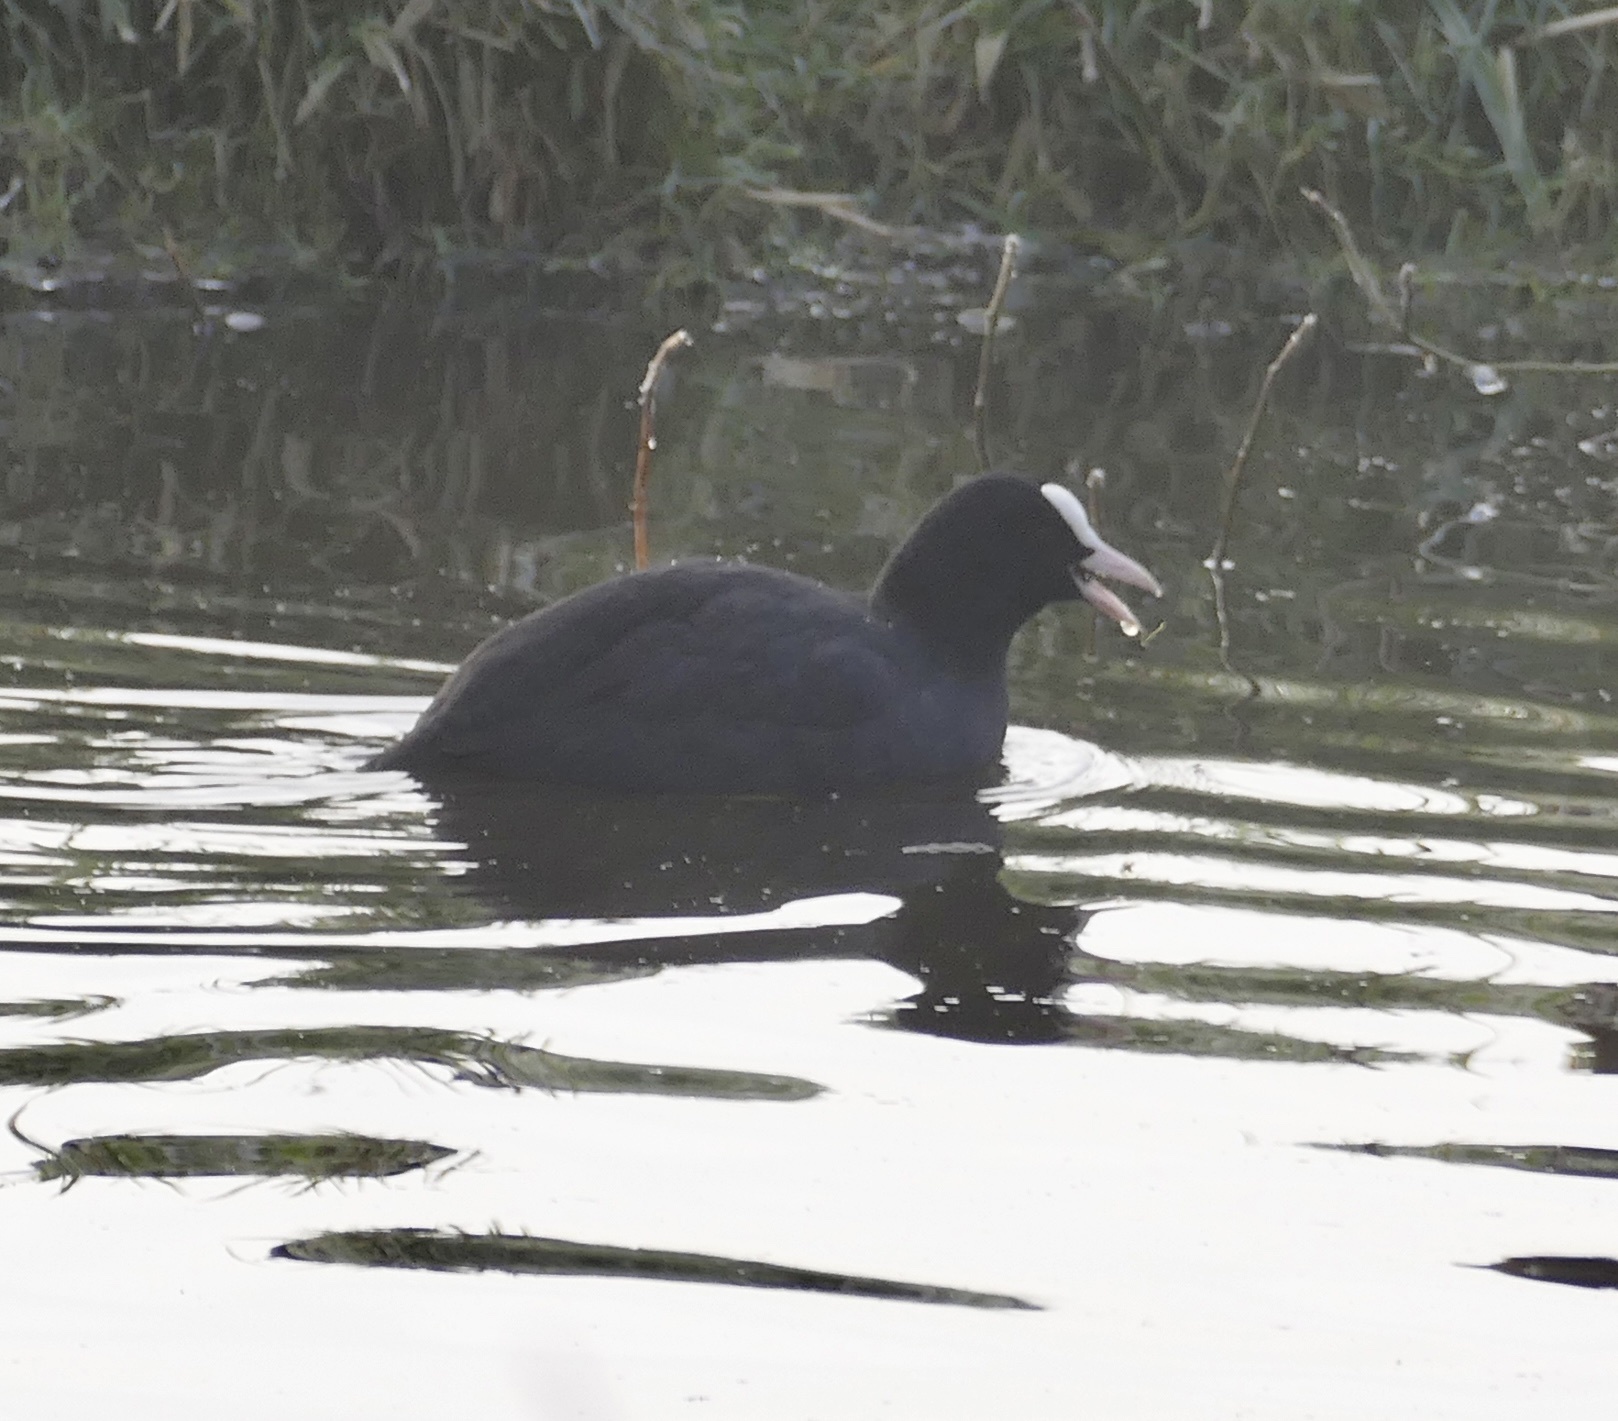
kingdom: Animalia
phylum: Chordata
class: Aves
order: Gruiformes
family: Rallidae
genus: Fulica
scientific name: Fulica atra
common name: Eurasian coot
